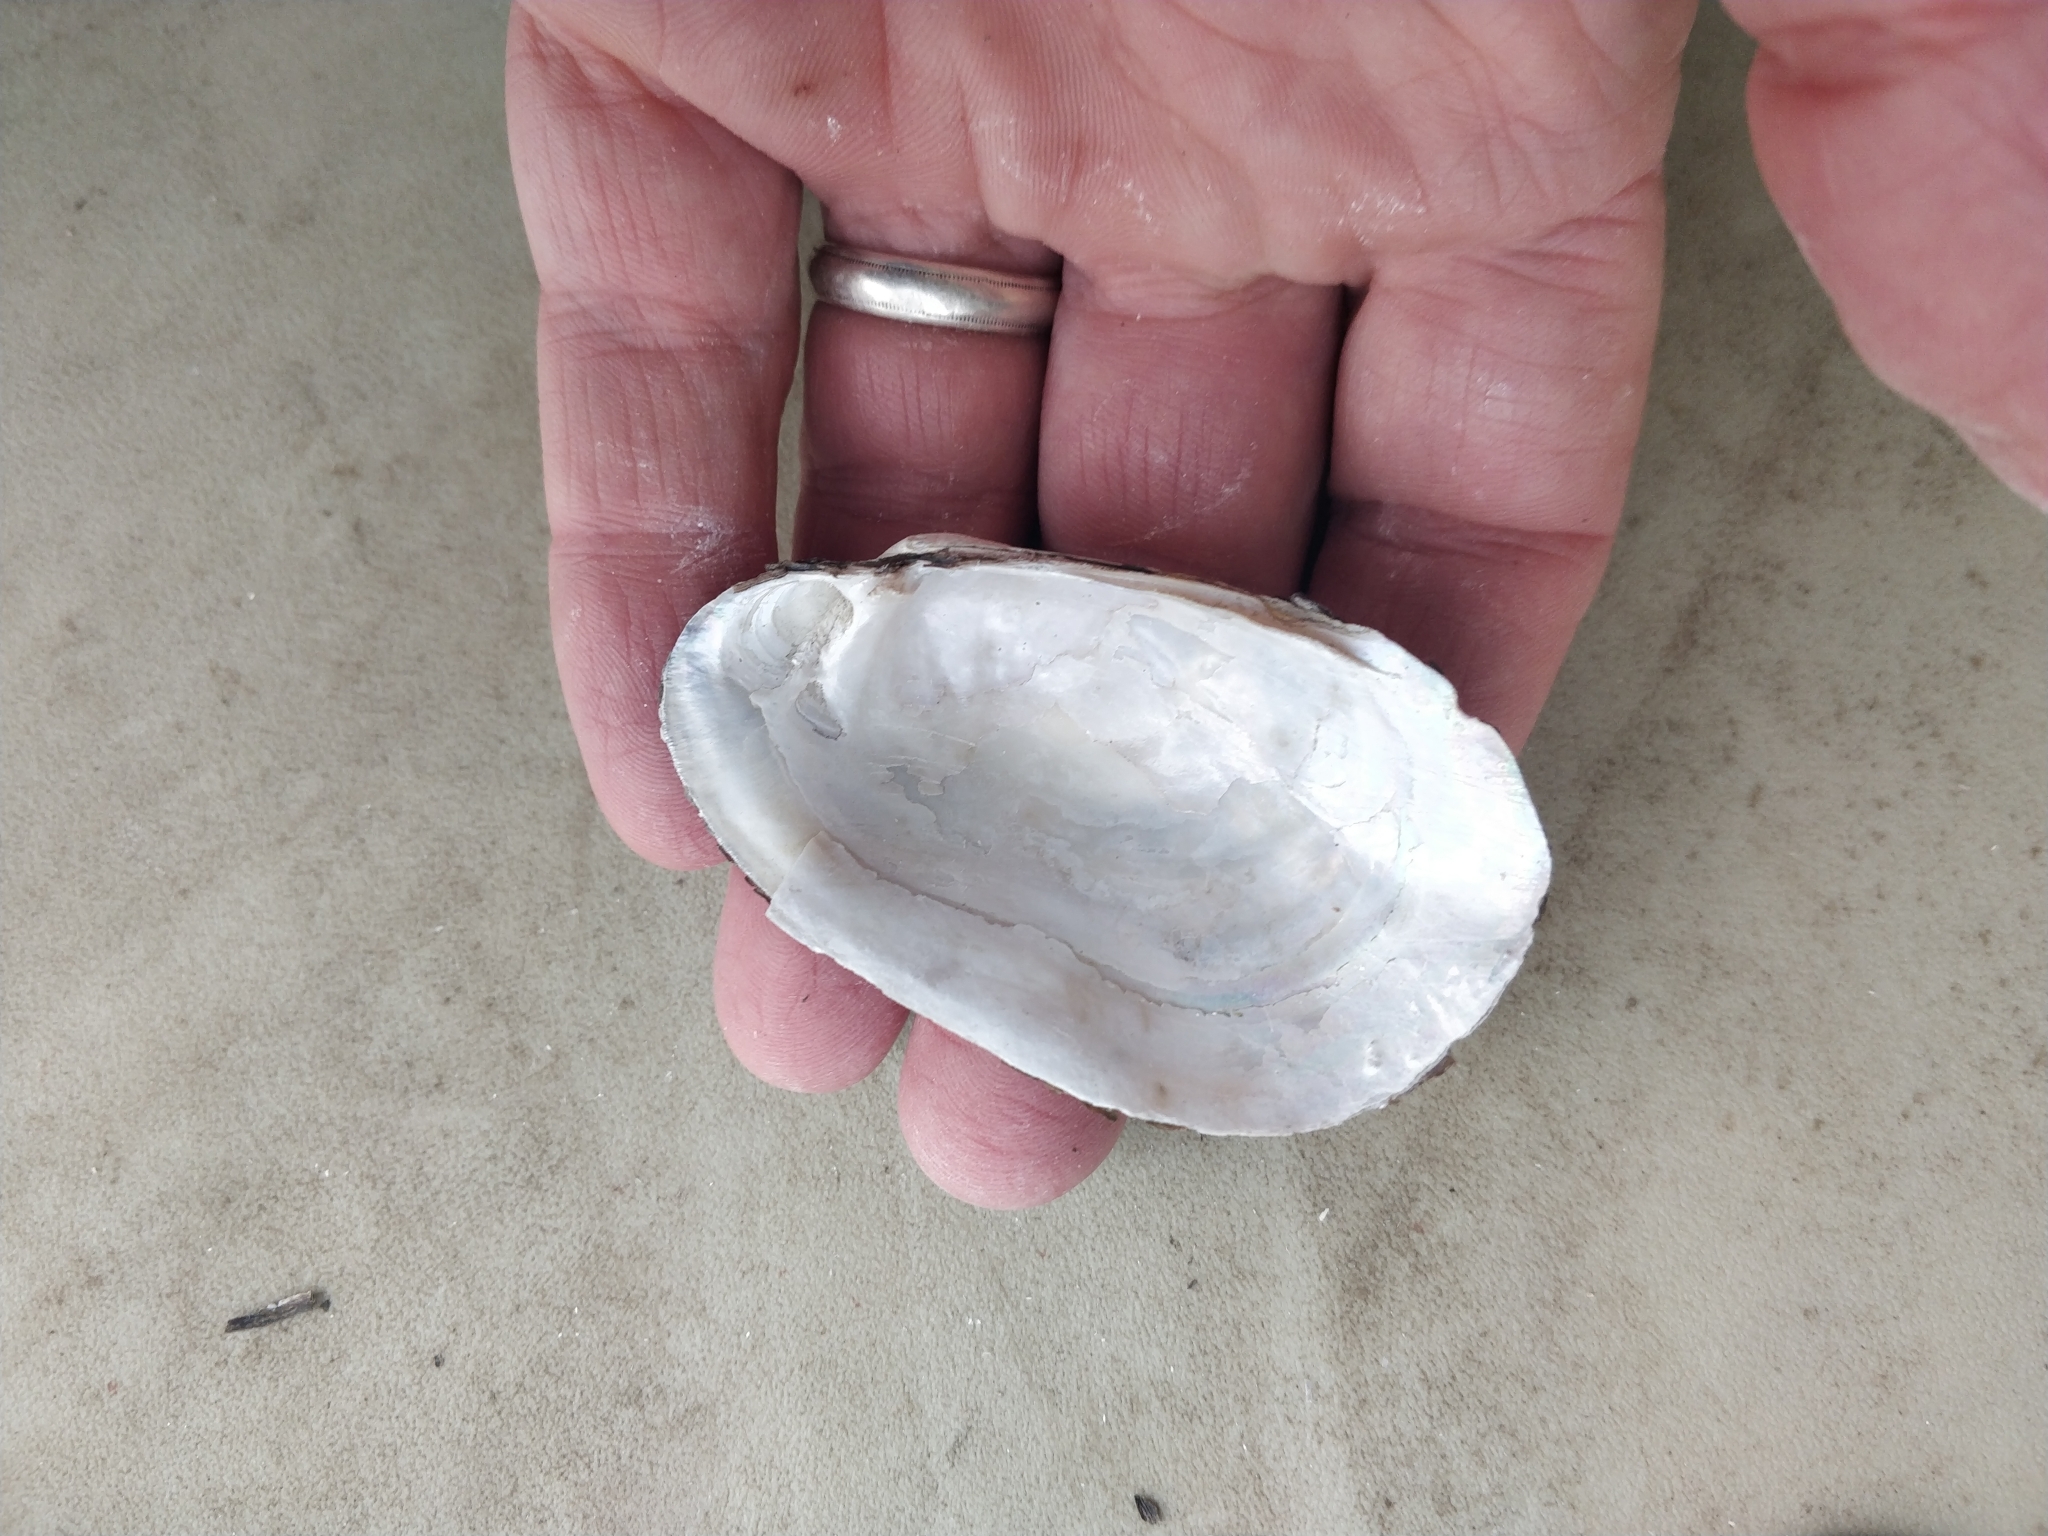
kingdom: Animalia
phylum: Mollusca
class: Bivalvia
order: Unionida
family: Unionidae
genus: Lampsilis
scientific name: Lampsilis siliquoidea
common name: Fatmucket
